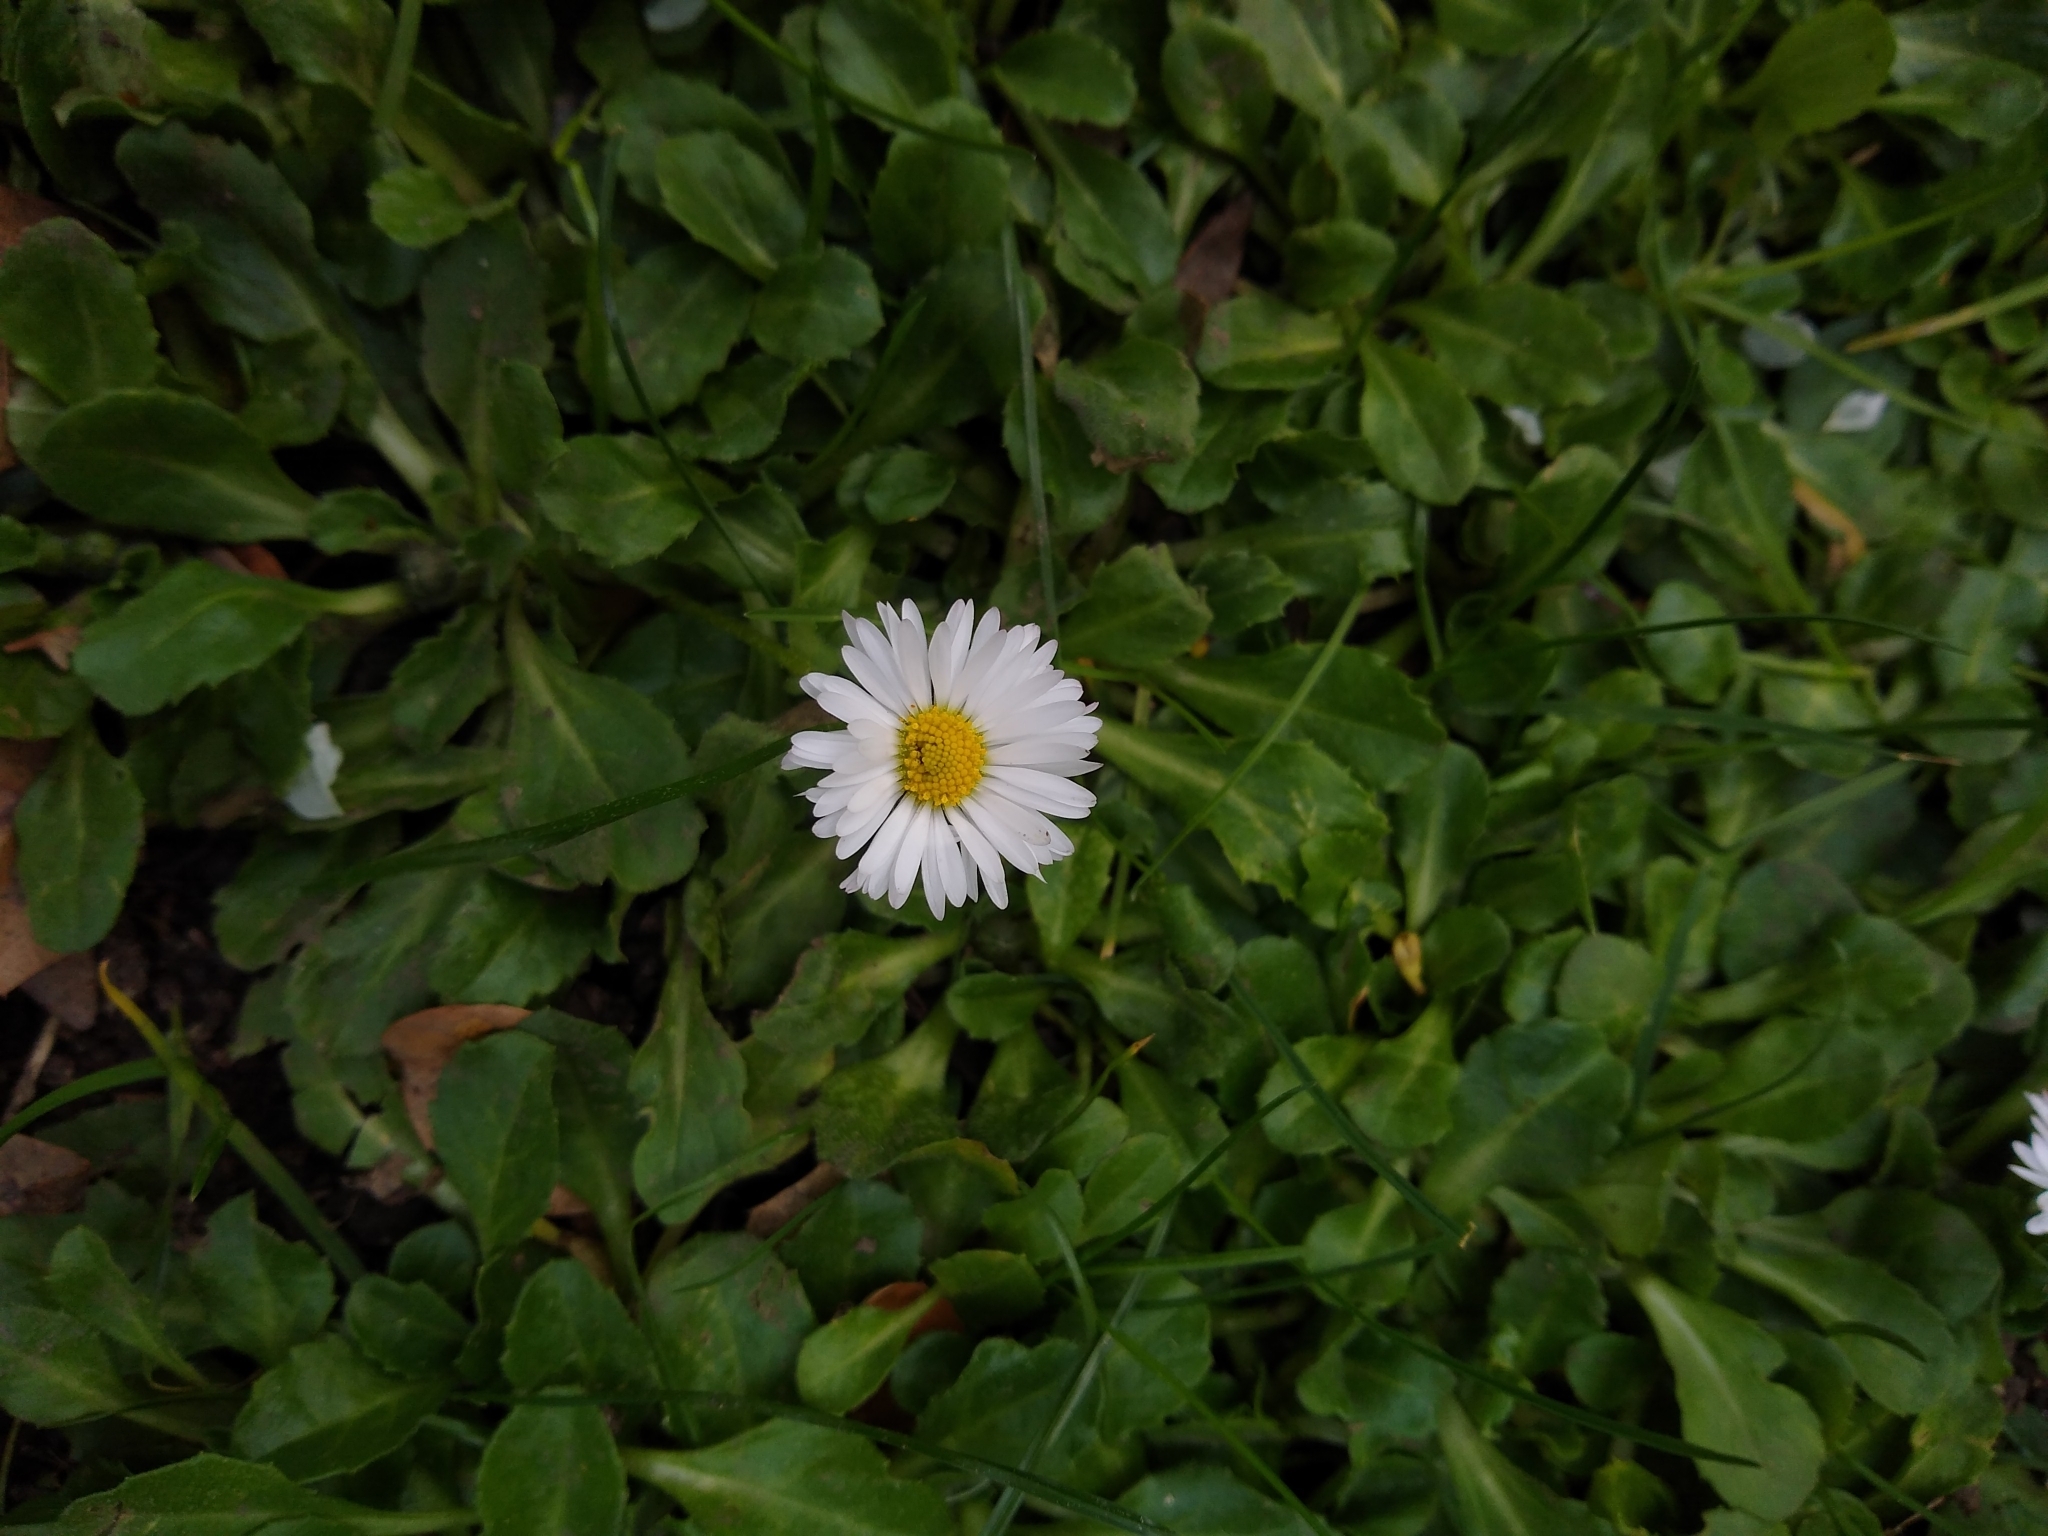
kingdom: Plantae
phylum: Tracheophyta
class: Magnoliopsida
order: Asterales
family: Asteraceae
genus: Bellis
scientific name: Bellis perennis
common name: Lawndaisy
